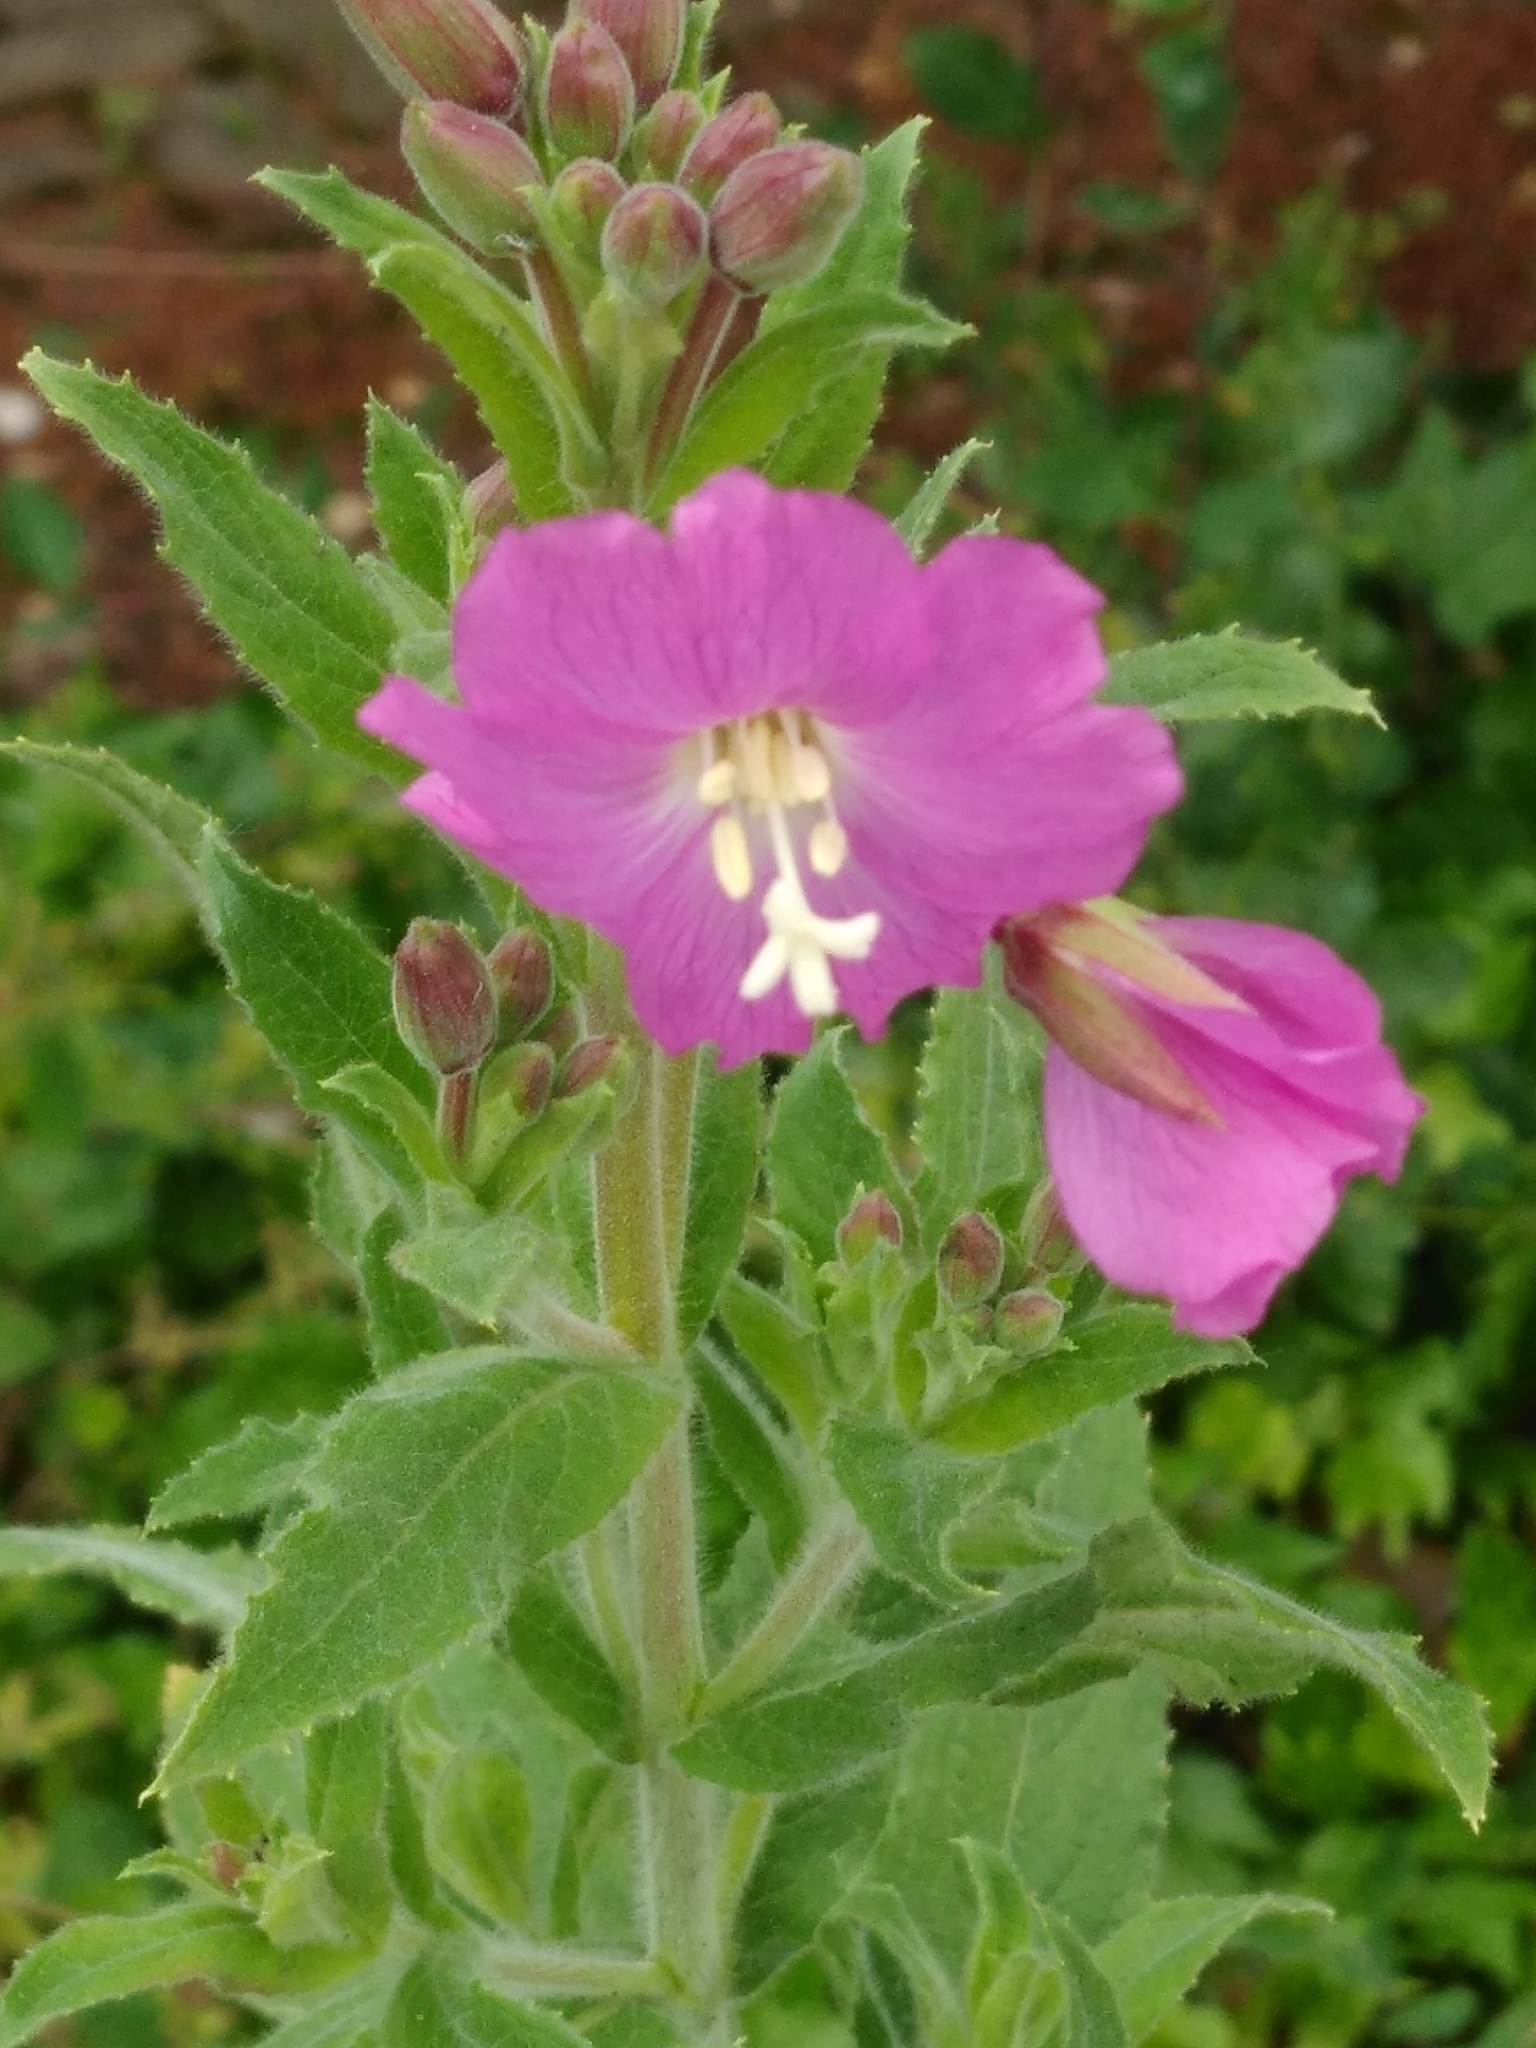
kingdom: Plantae
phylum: Tracheophyta
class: Magnoliopsida
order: Myrtales
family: Onagraceae
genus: Epilobium
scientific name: Epilobium hirsutum
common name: Great willowherb
